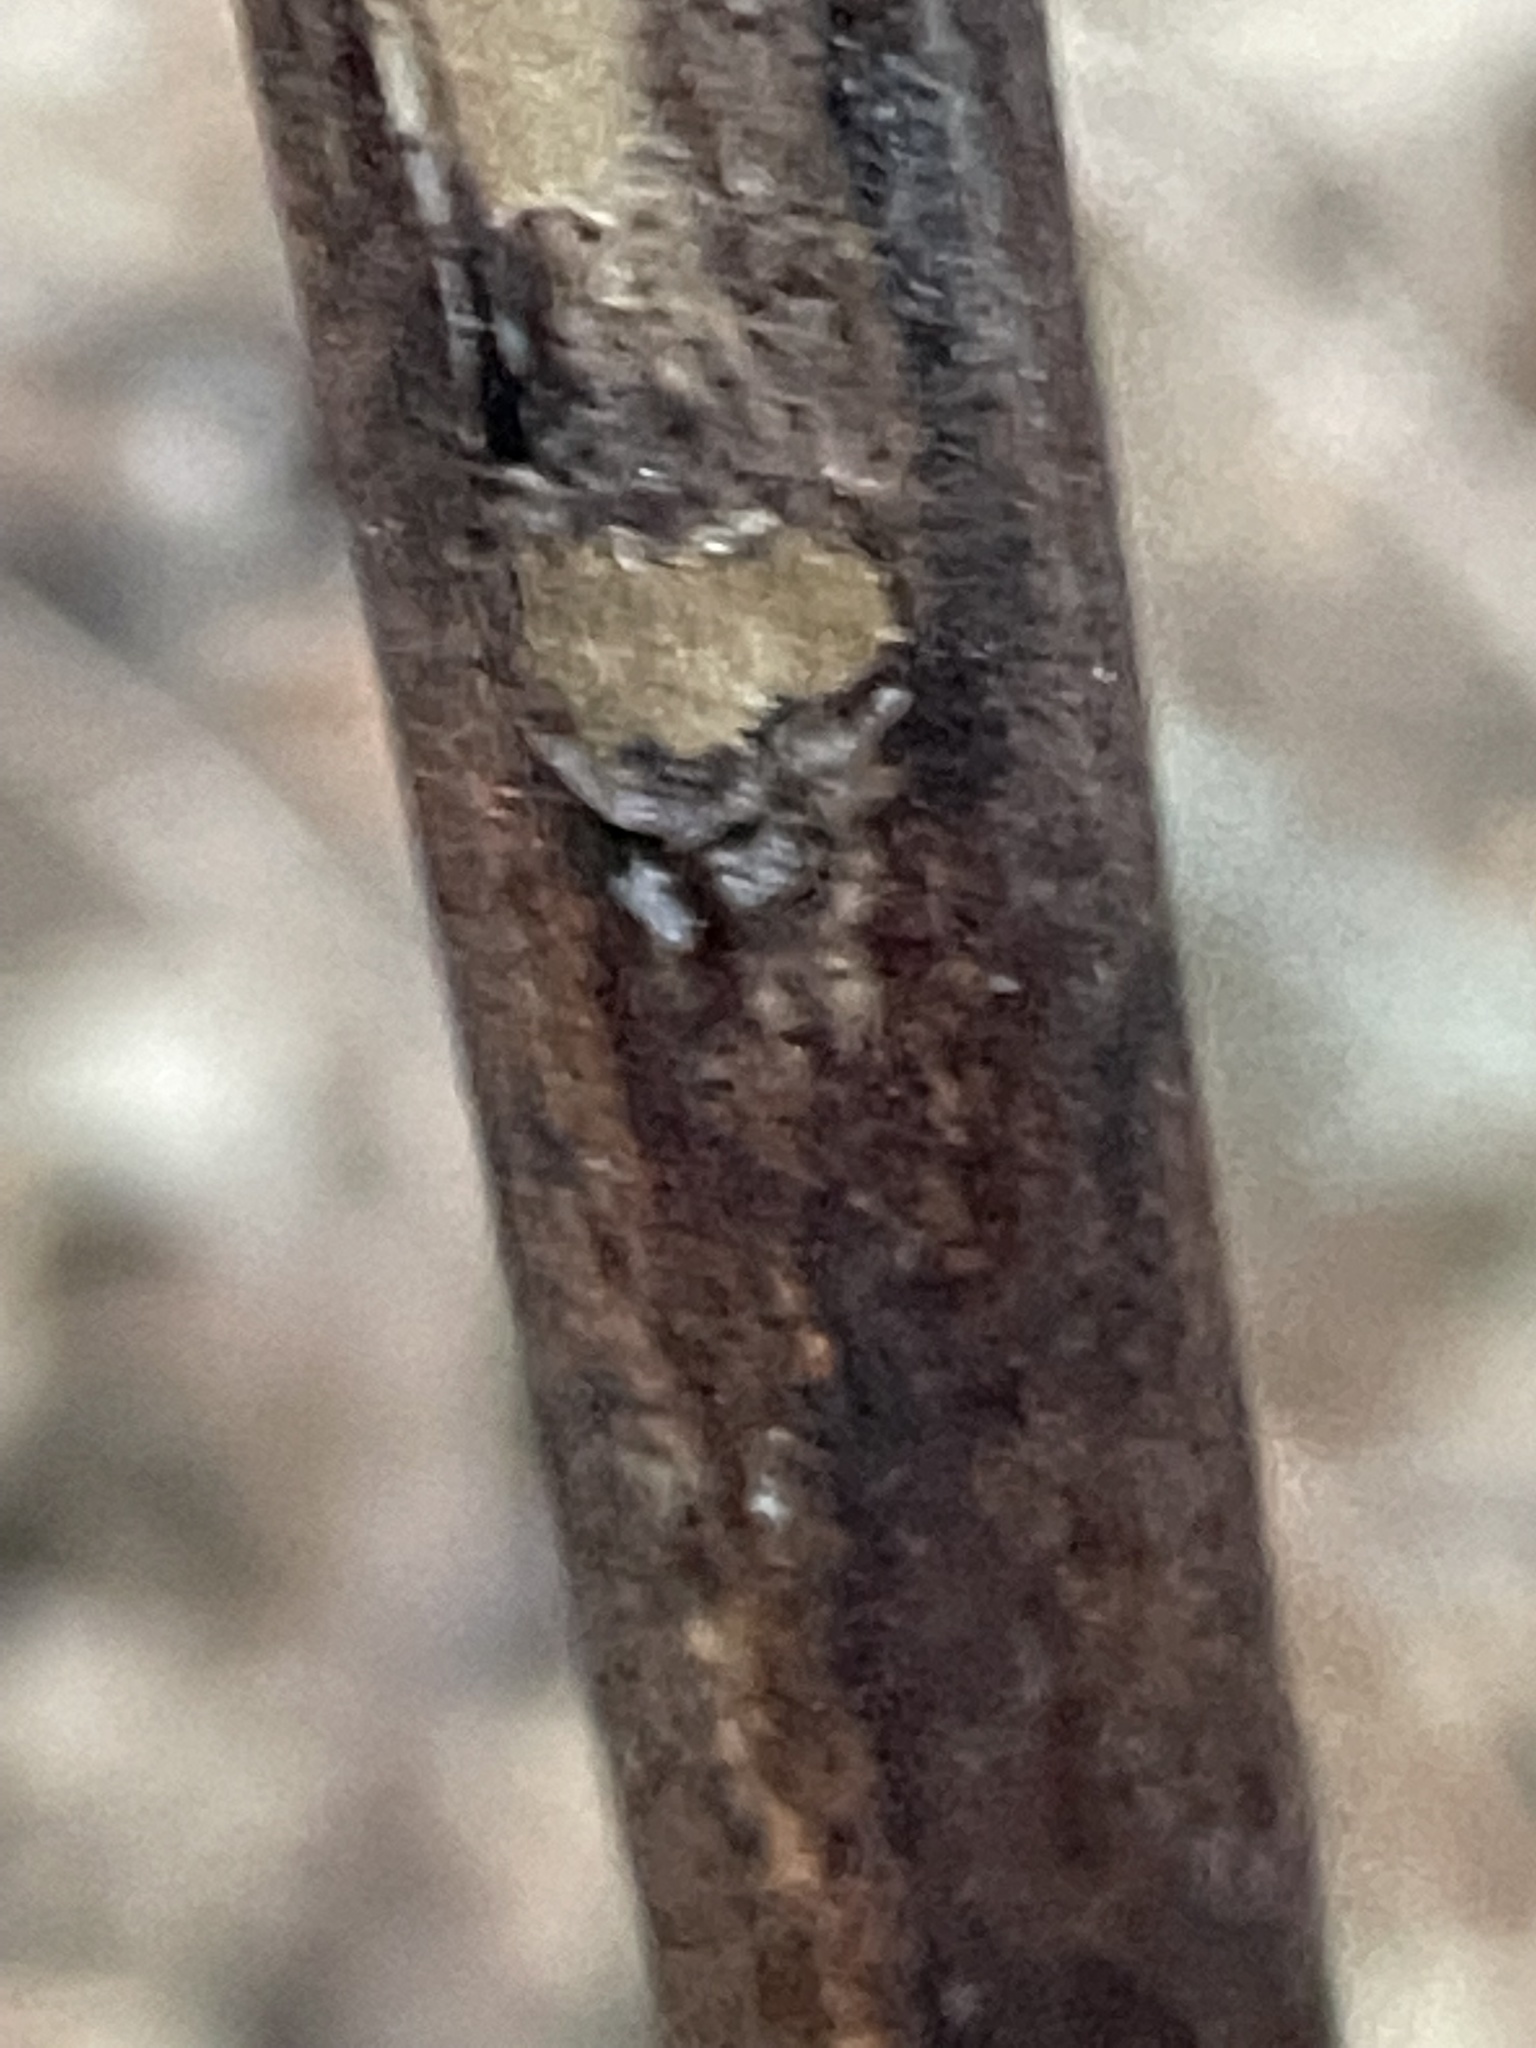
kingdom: Plantae
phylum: Tracheophyta
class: Magnoliopsida
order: Caryophyllales
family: Polygonaceae
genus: Reynoutria
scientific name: Reynoutria japonica
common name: Japanese knotweed
